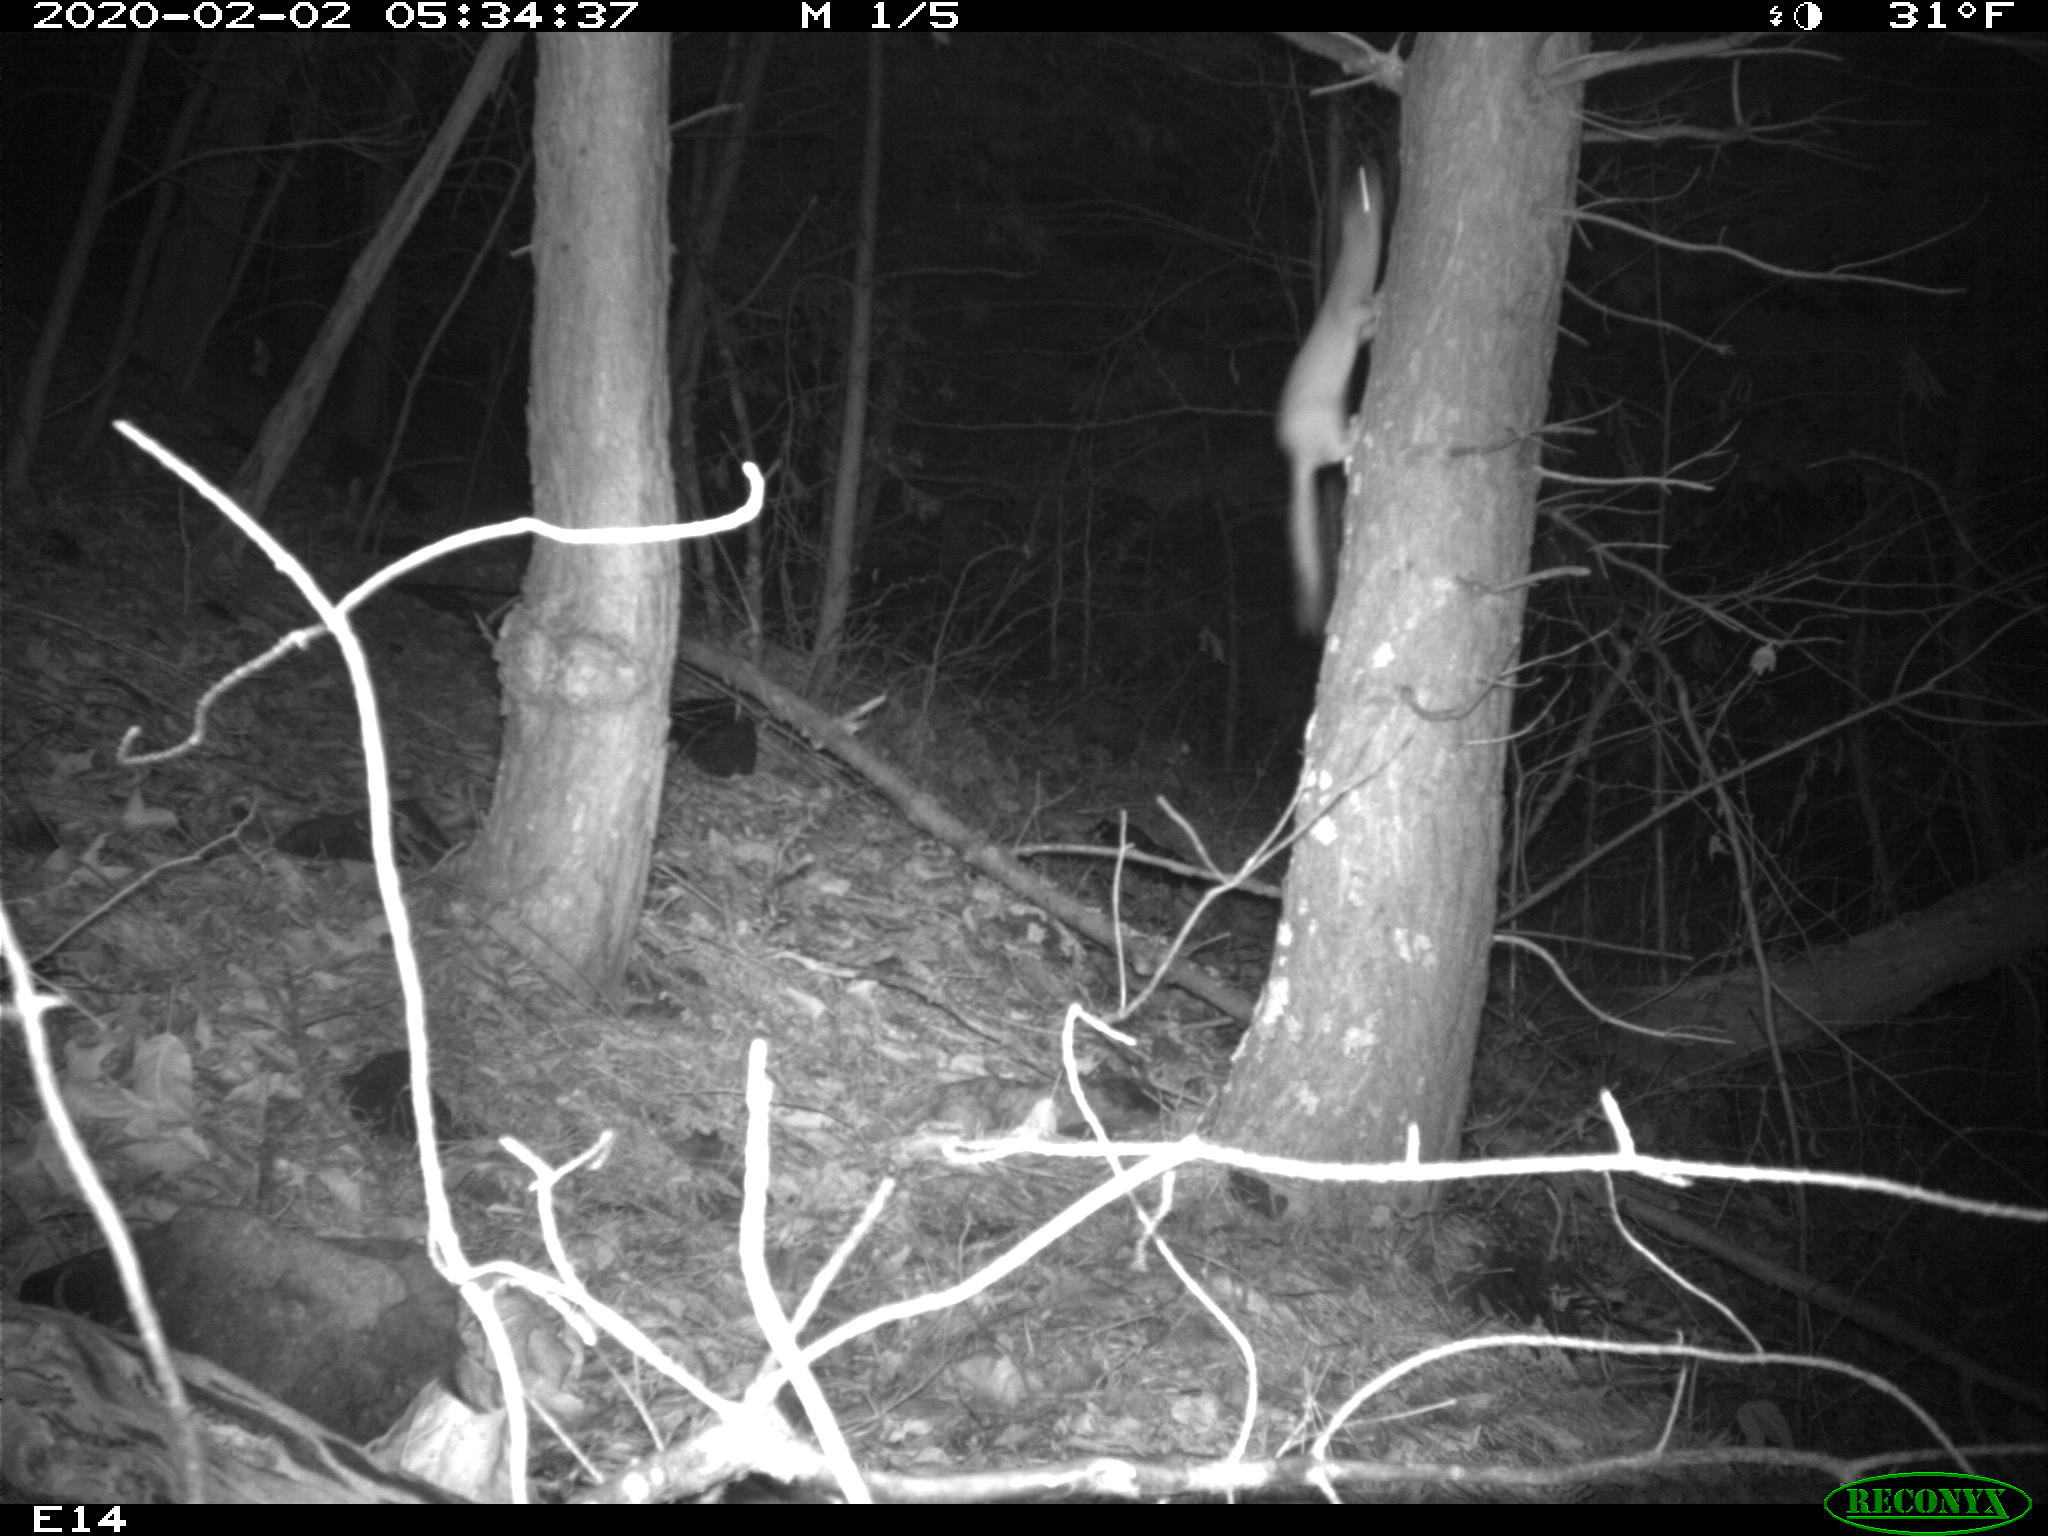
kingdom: Animalia
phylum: Chordata
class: Mammalia
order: Carnivora
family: Mustelidae
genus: Mustela
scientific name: Mustela
